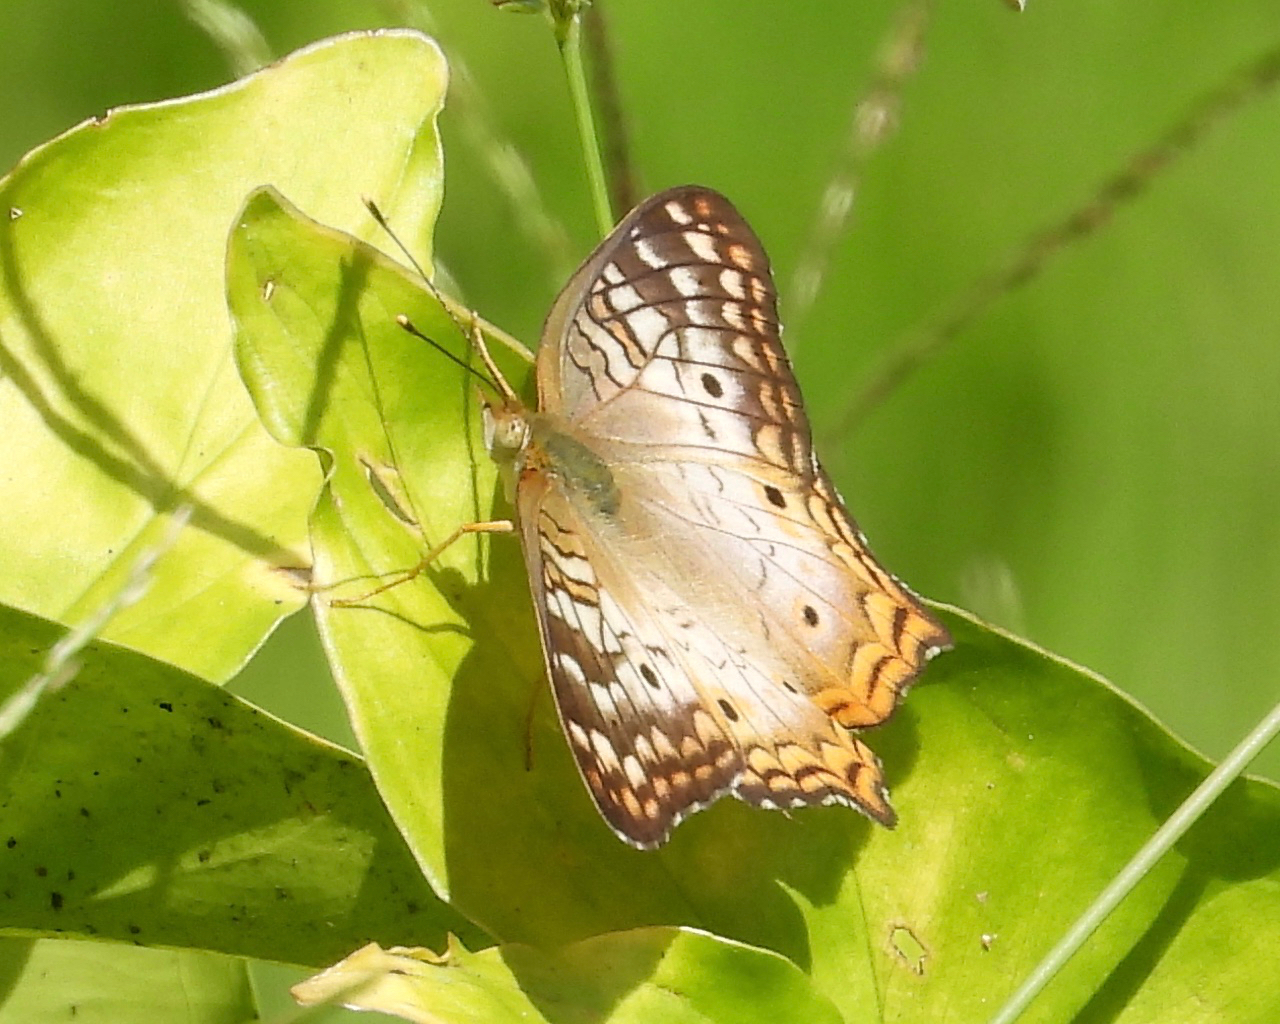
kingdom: Animalia
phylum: Arthropoda
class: Insecta
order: Lepidoptera
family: Nymphalidae
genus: Anartia
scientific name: Anartia jatrophae
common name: White peacock
